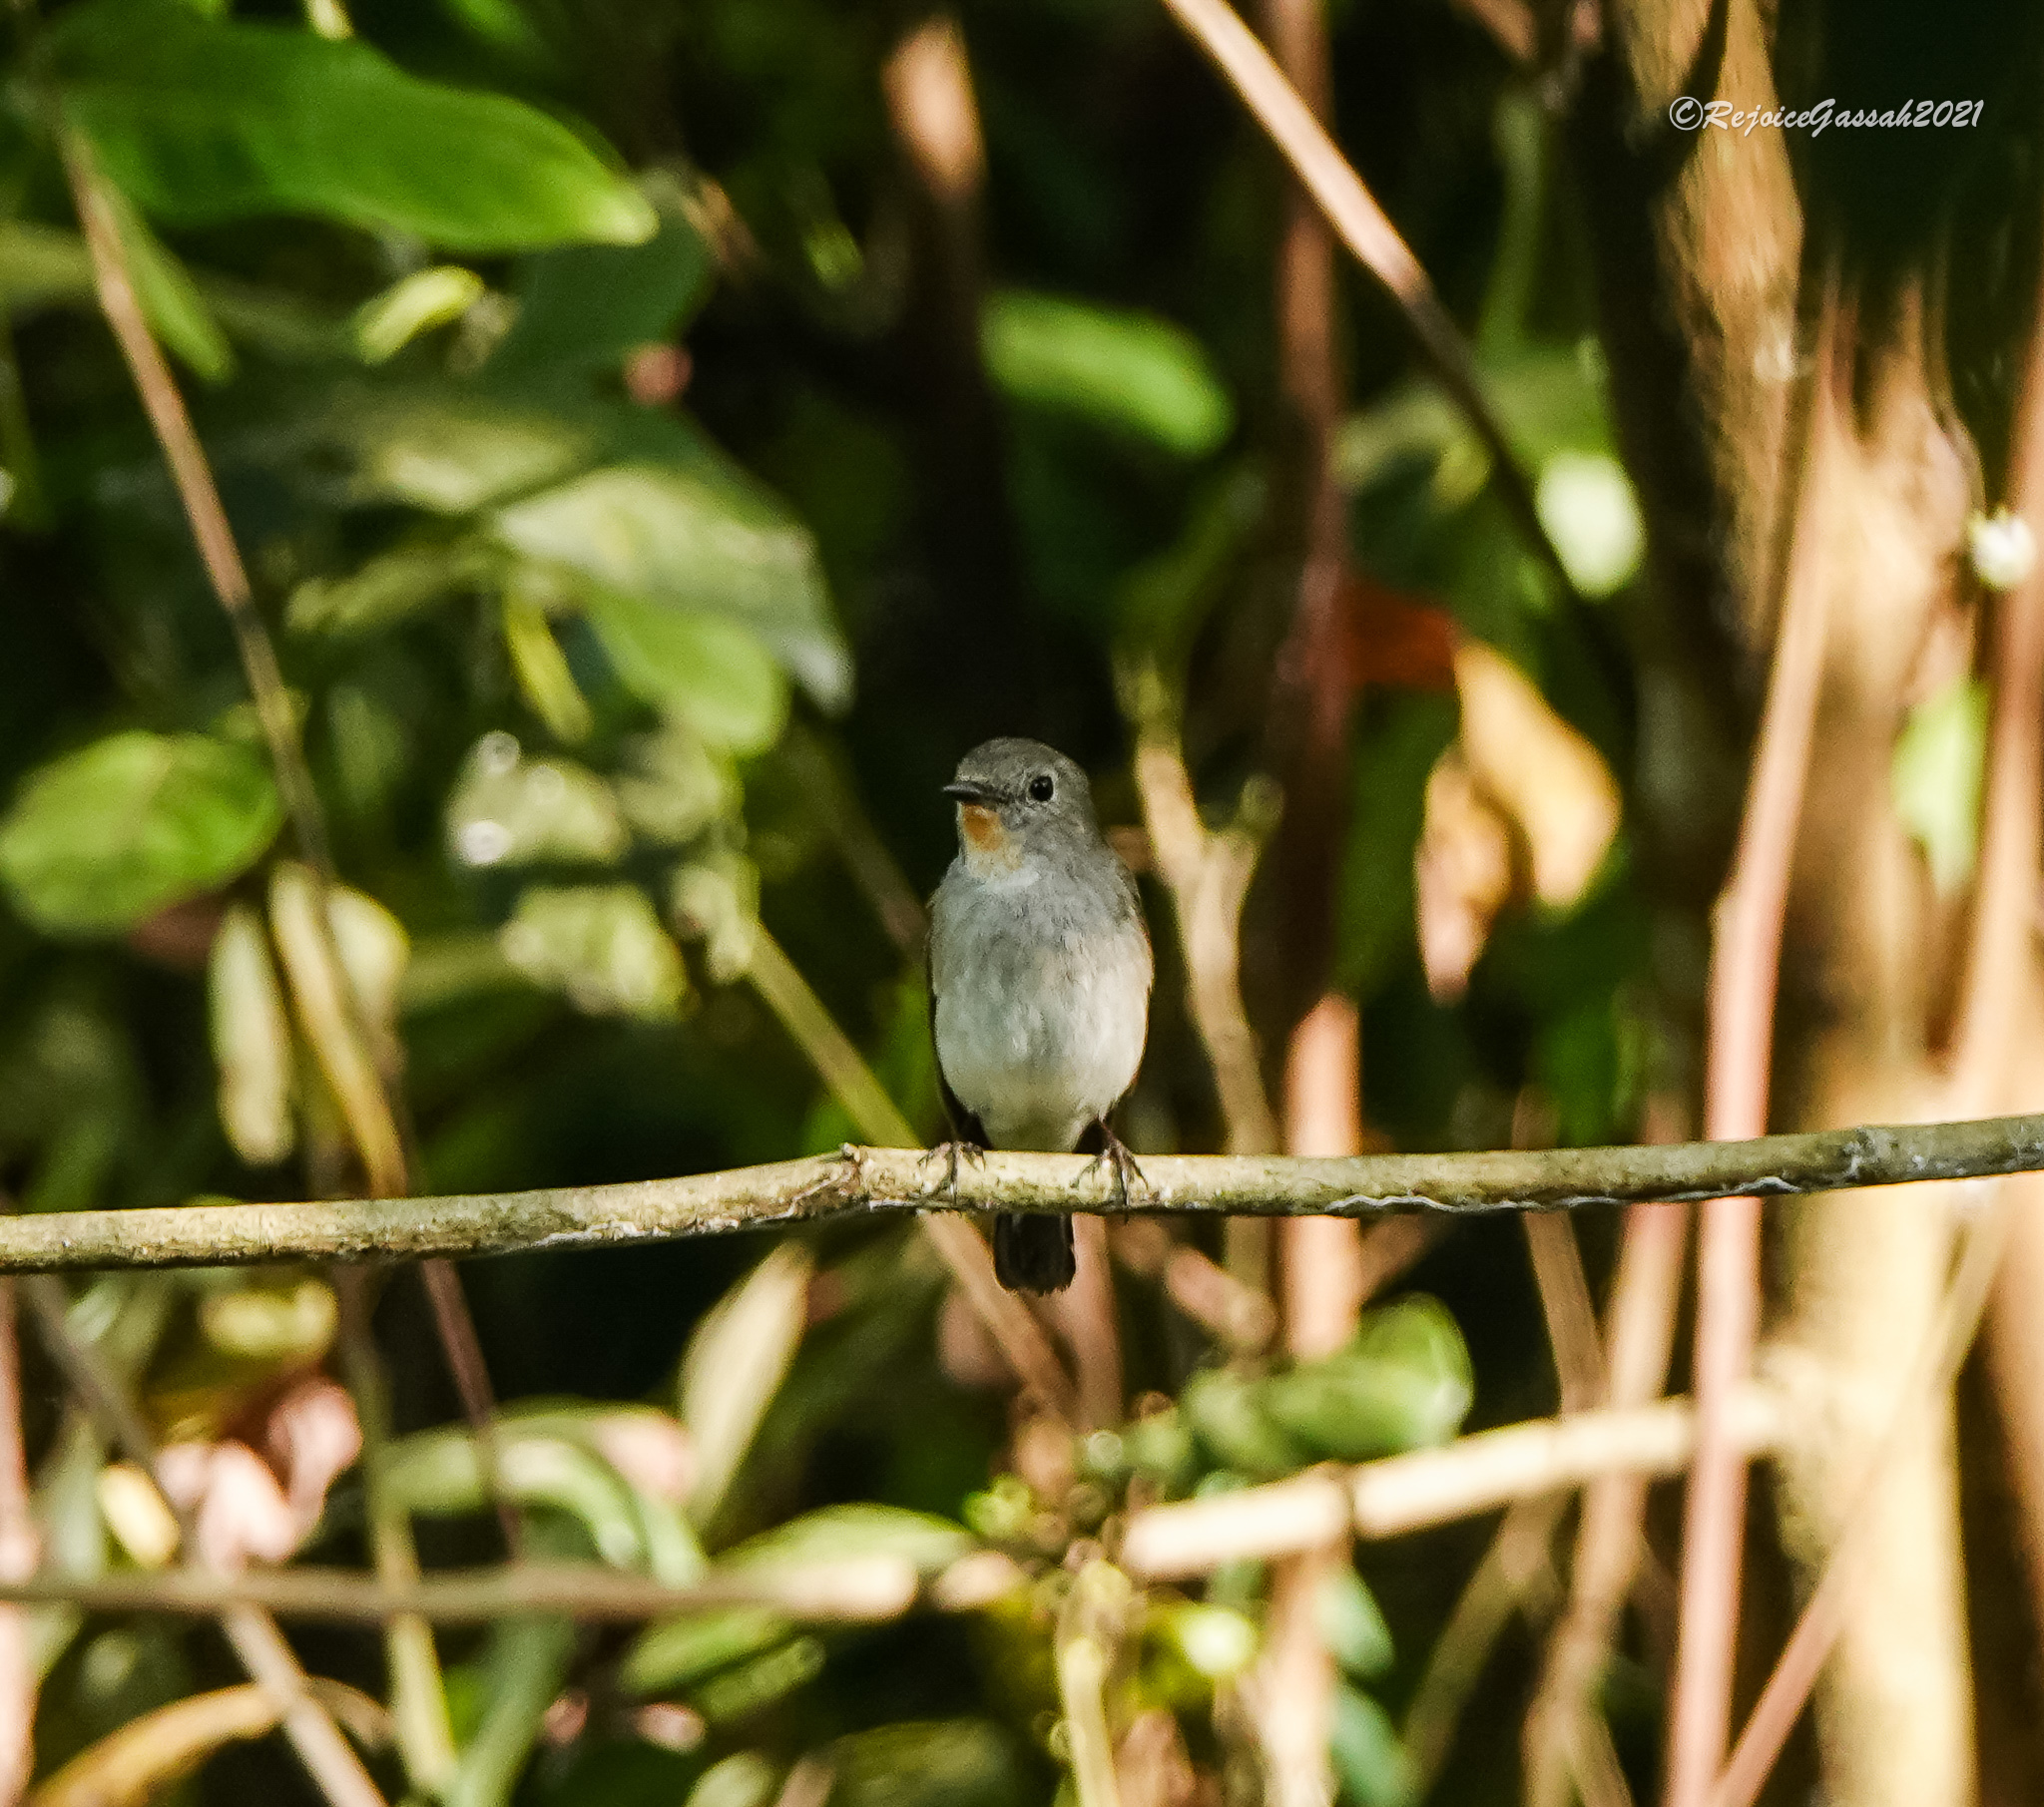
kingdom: Animalia
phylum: Chordata
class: Aves
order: Passeriformes
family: Muscicapidae
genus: Ficedula
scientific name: Ficedula albicilla
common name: Taiga flycatcher
